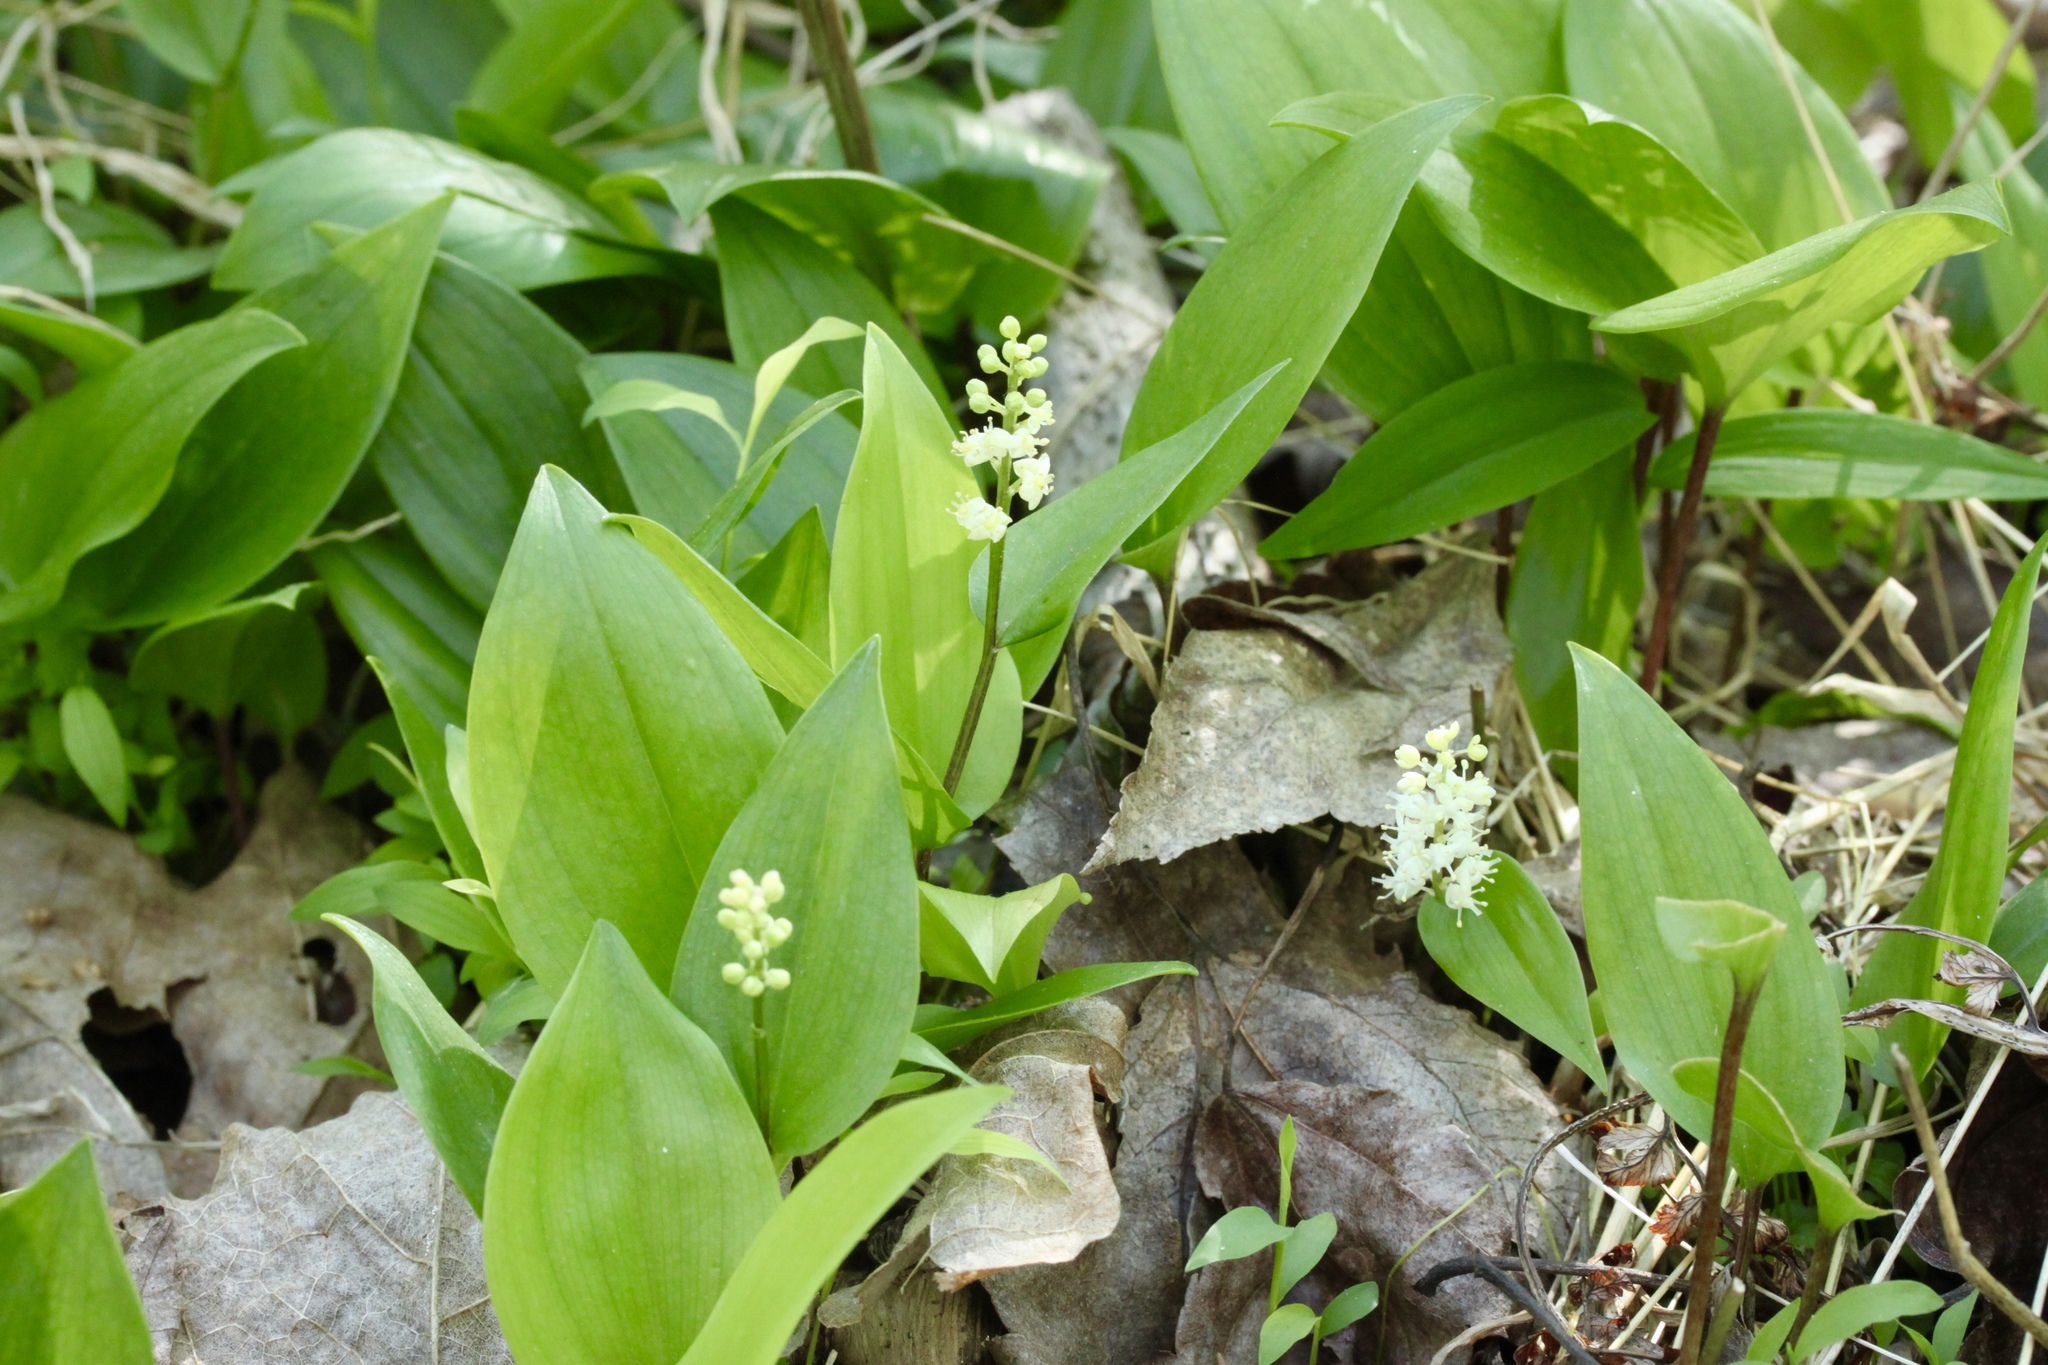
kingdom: Plantae
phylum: Tracheophyta
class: Liliopsida
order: Asparagales
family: Asparagaceae
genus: Maianthemum
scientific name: Maianthemum canadense
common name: False lily-of-the-valley
